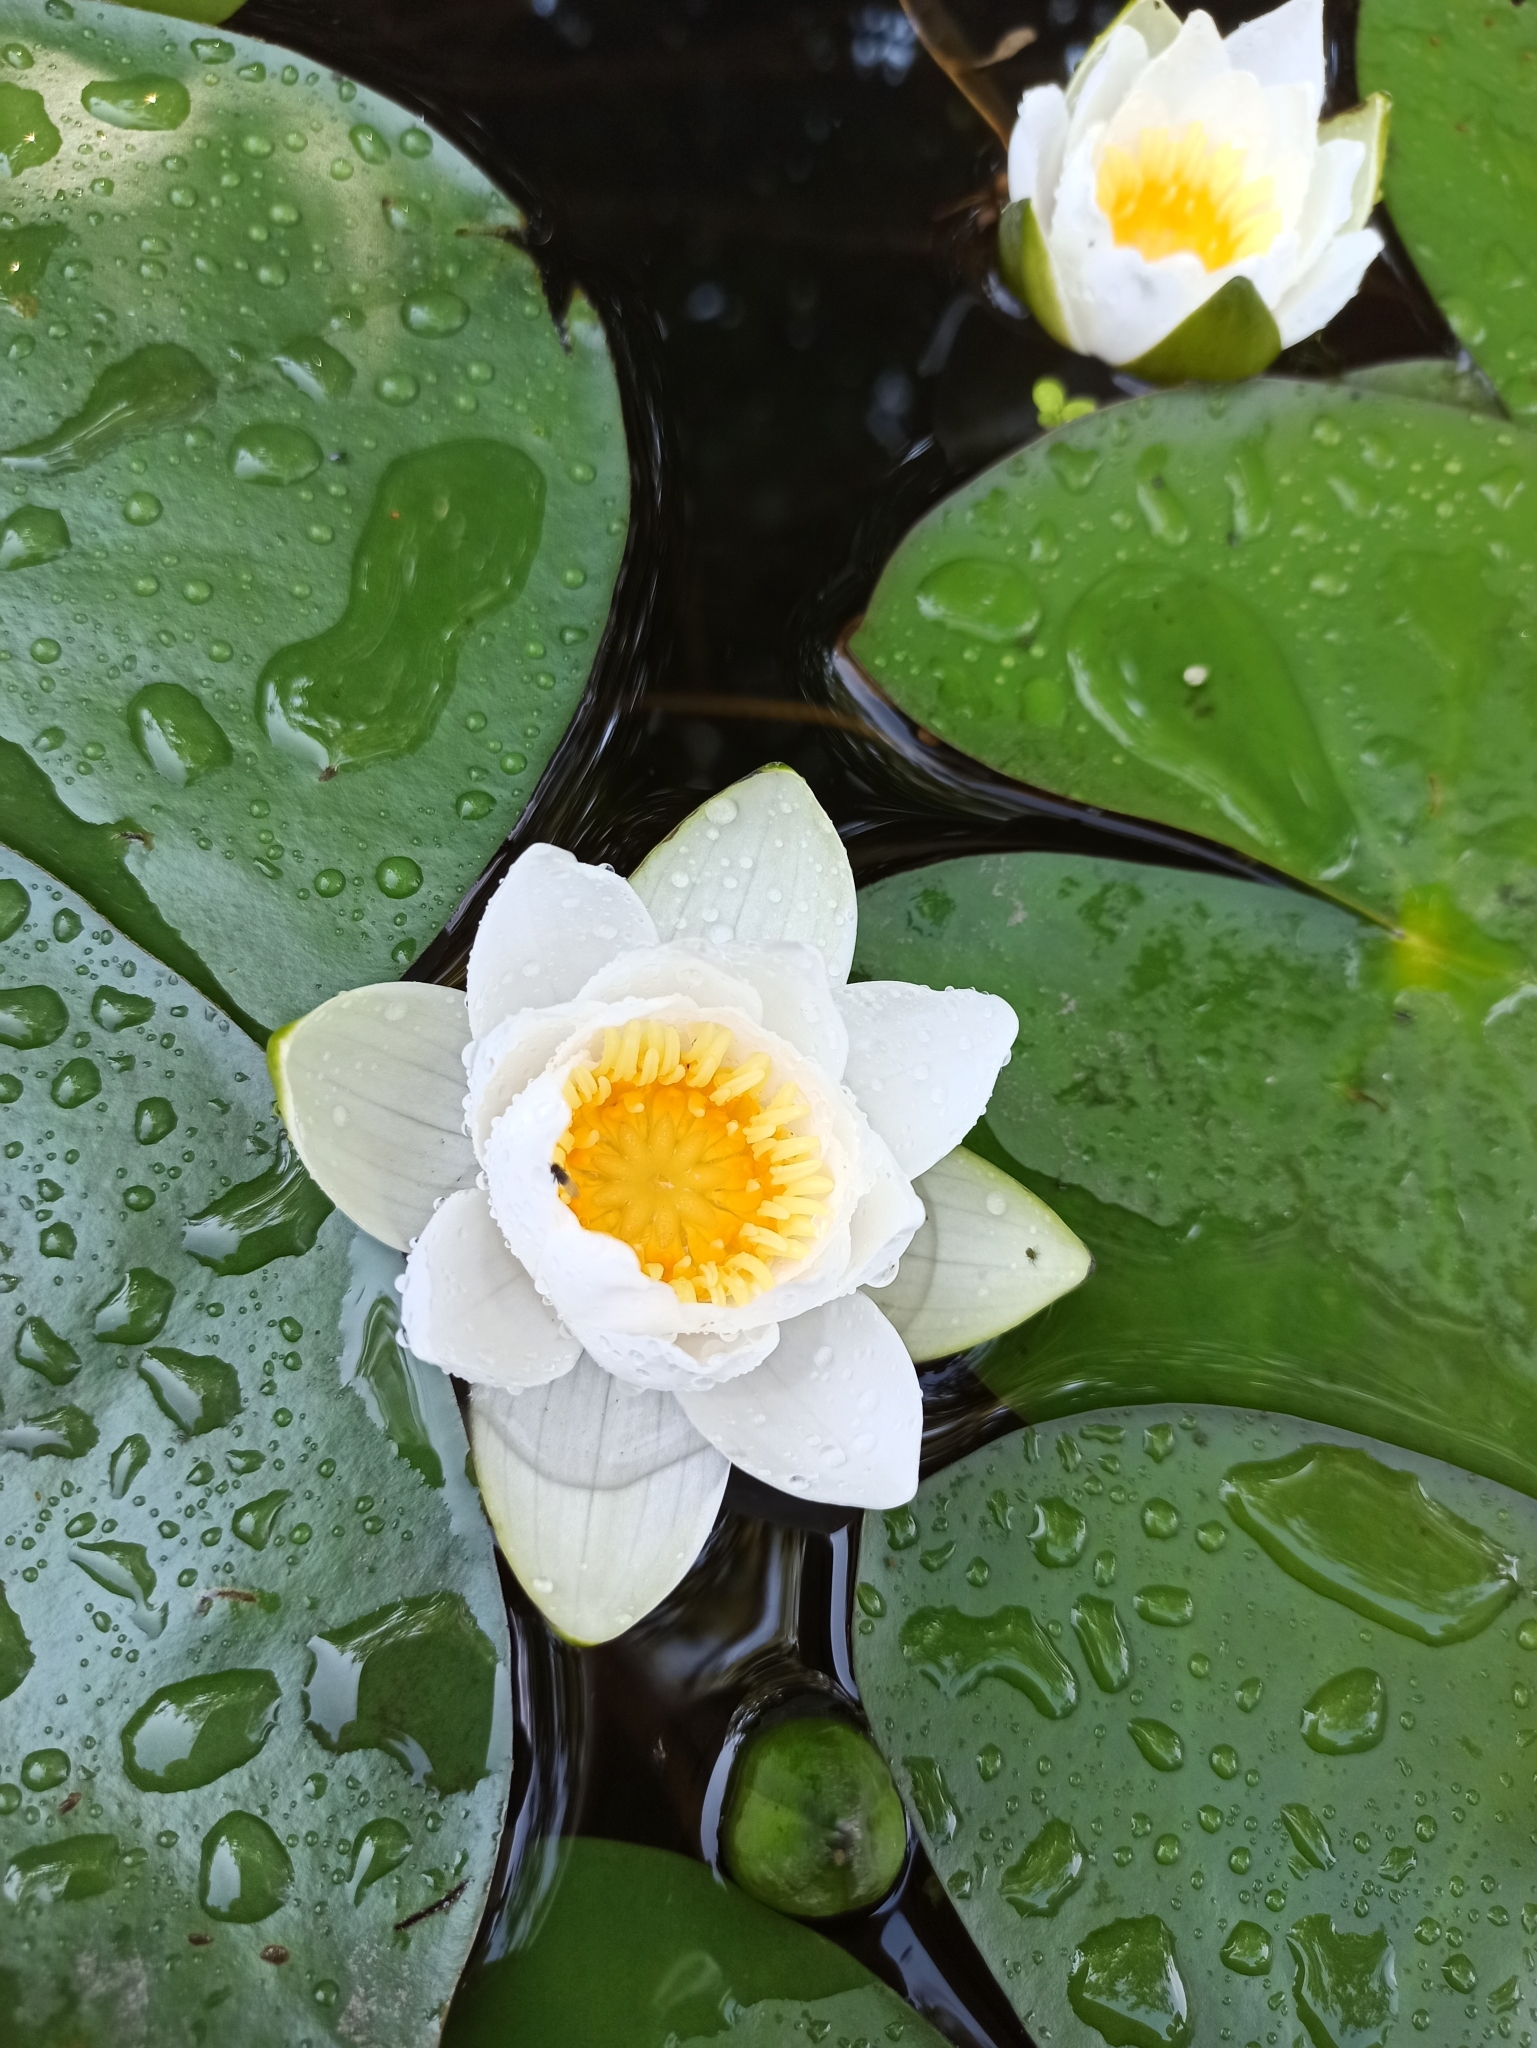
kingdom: Plantae
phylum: Tracheophyta
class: Magnoliopsida
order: Nymphaeales
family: Nymphaeaceae
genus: Nymphaea
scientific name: Nymphaea candida
